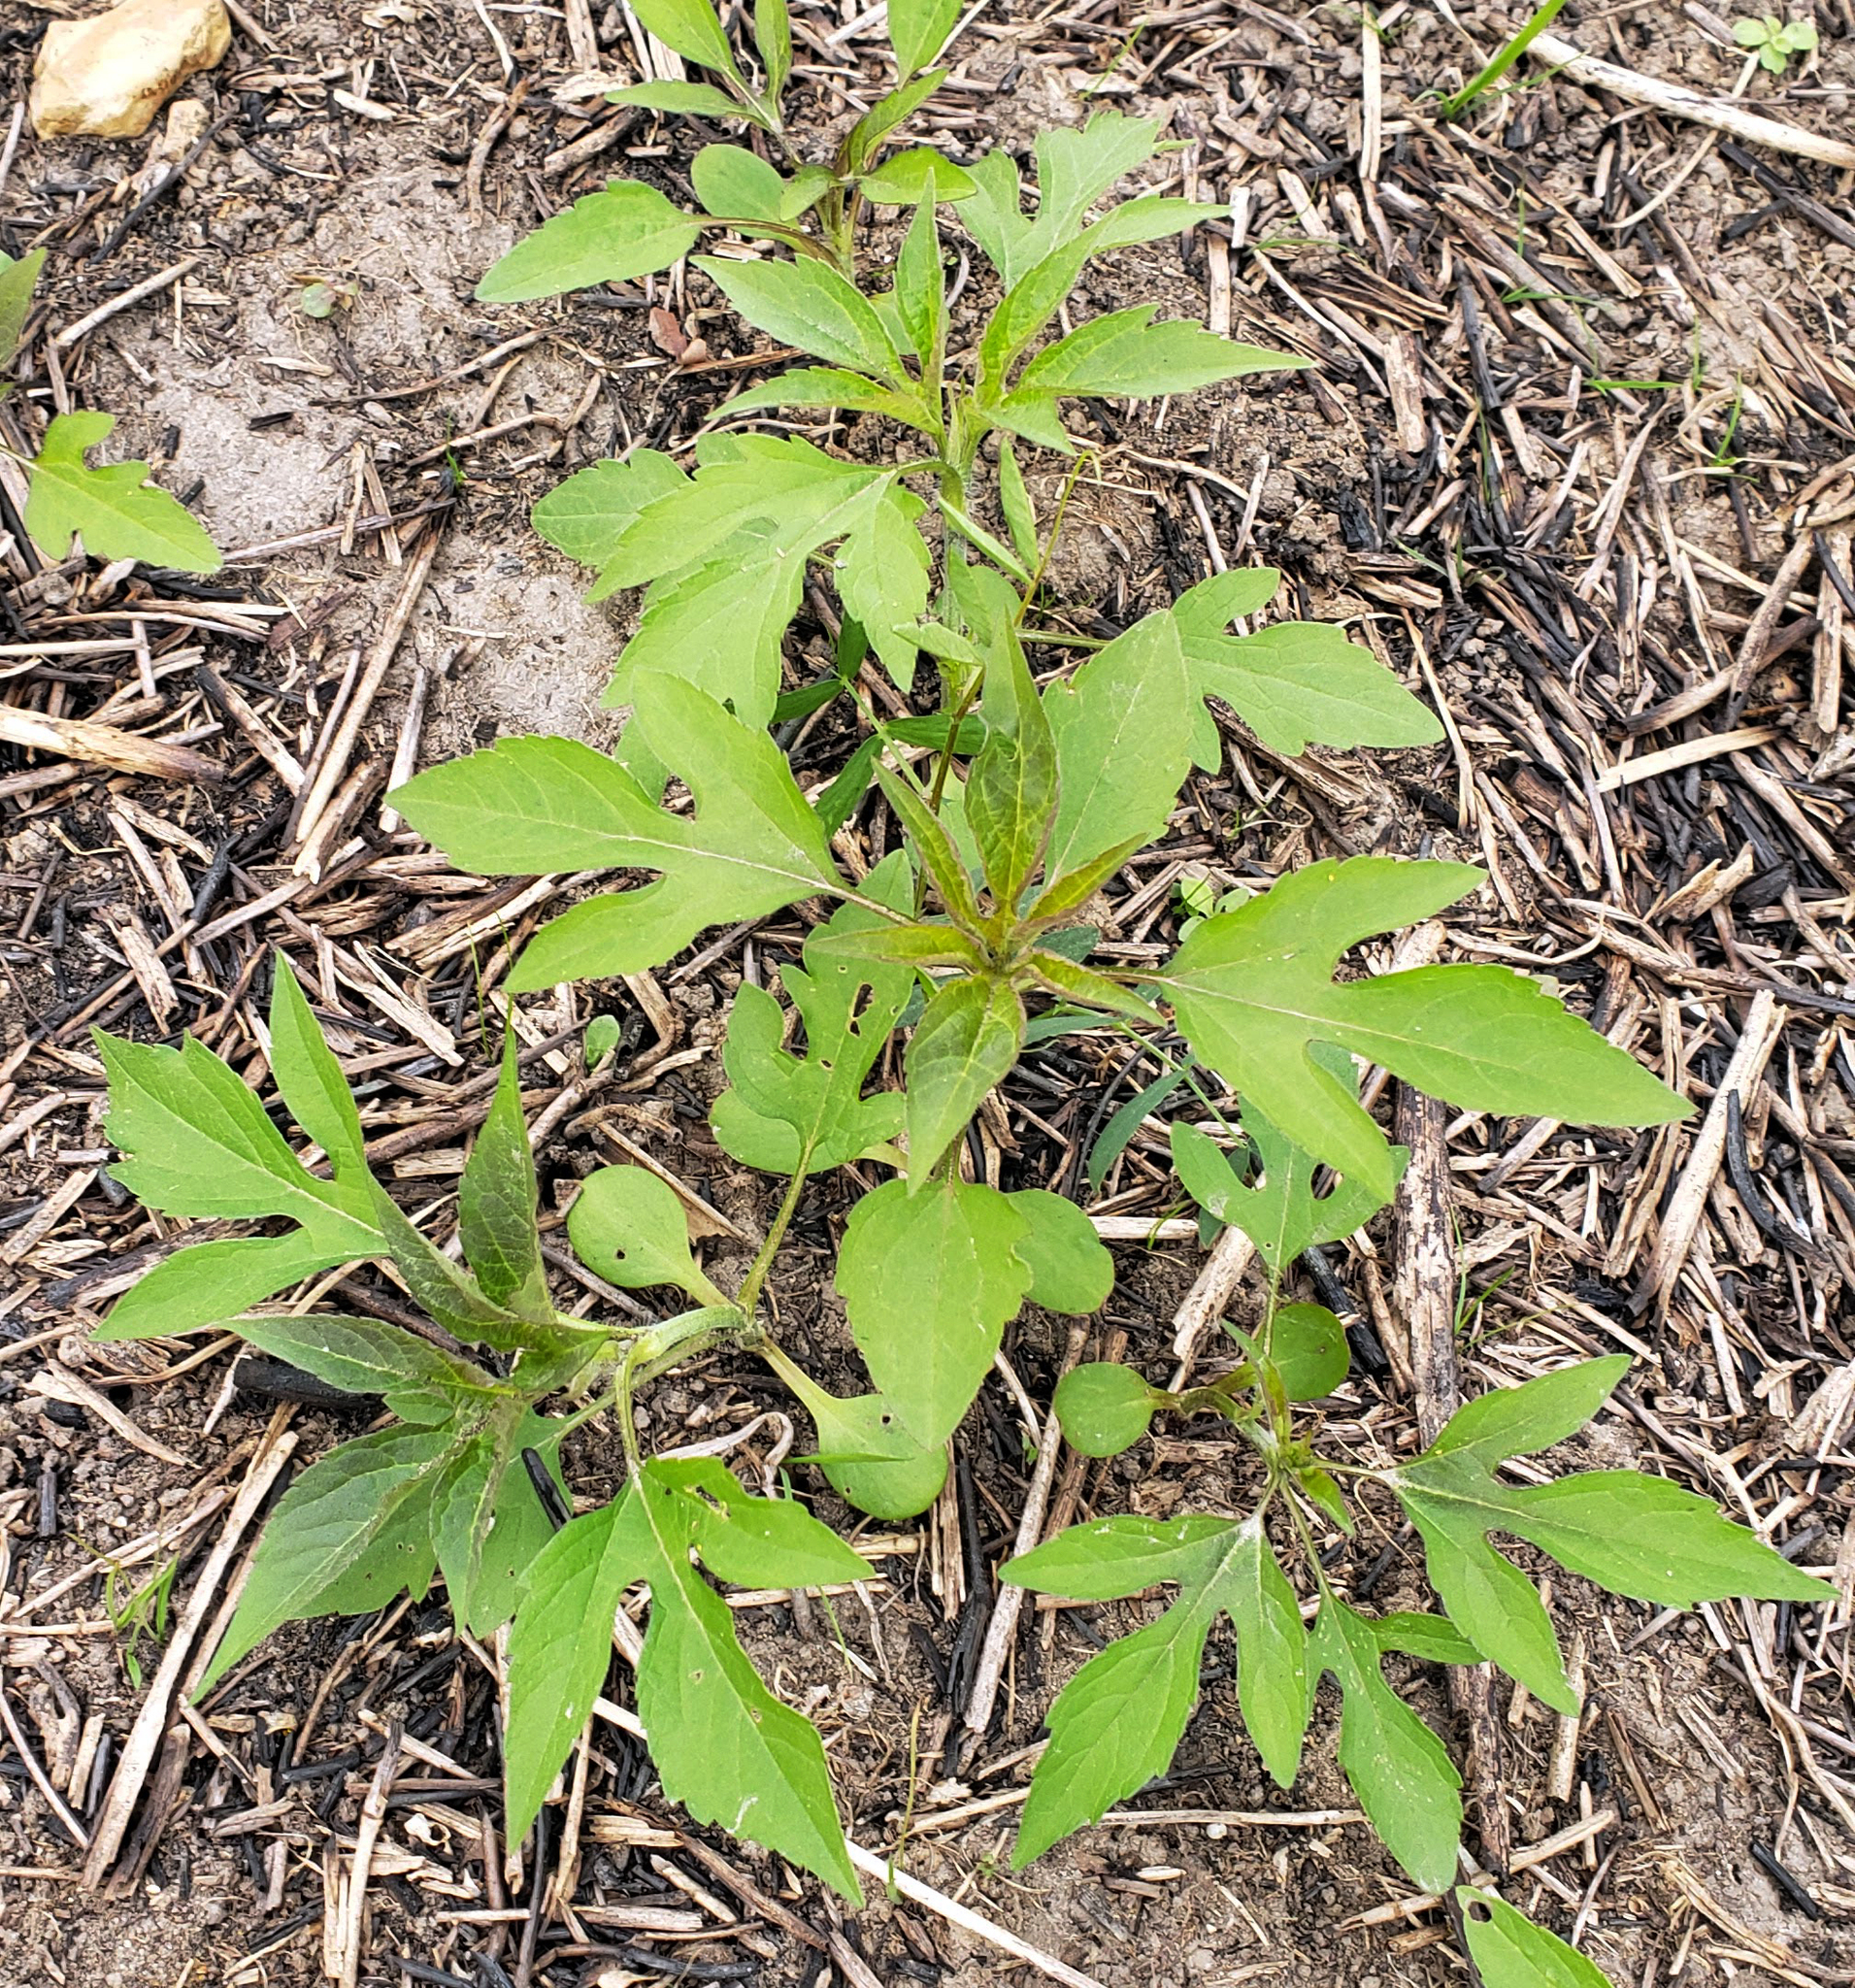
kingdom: Plantae
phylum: Tracheophyta
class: Magnoliopsida
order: Asterales
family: Asteraceae
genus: Ambrosia
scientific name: Ambrosia trifida
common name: Giant ragweed
